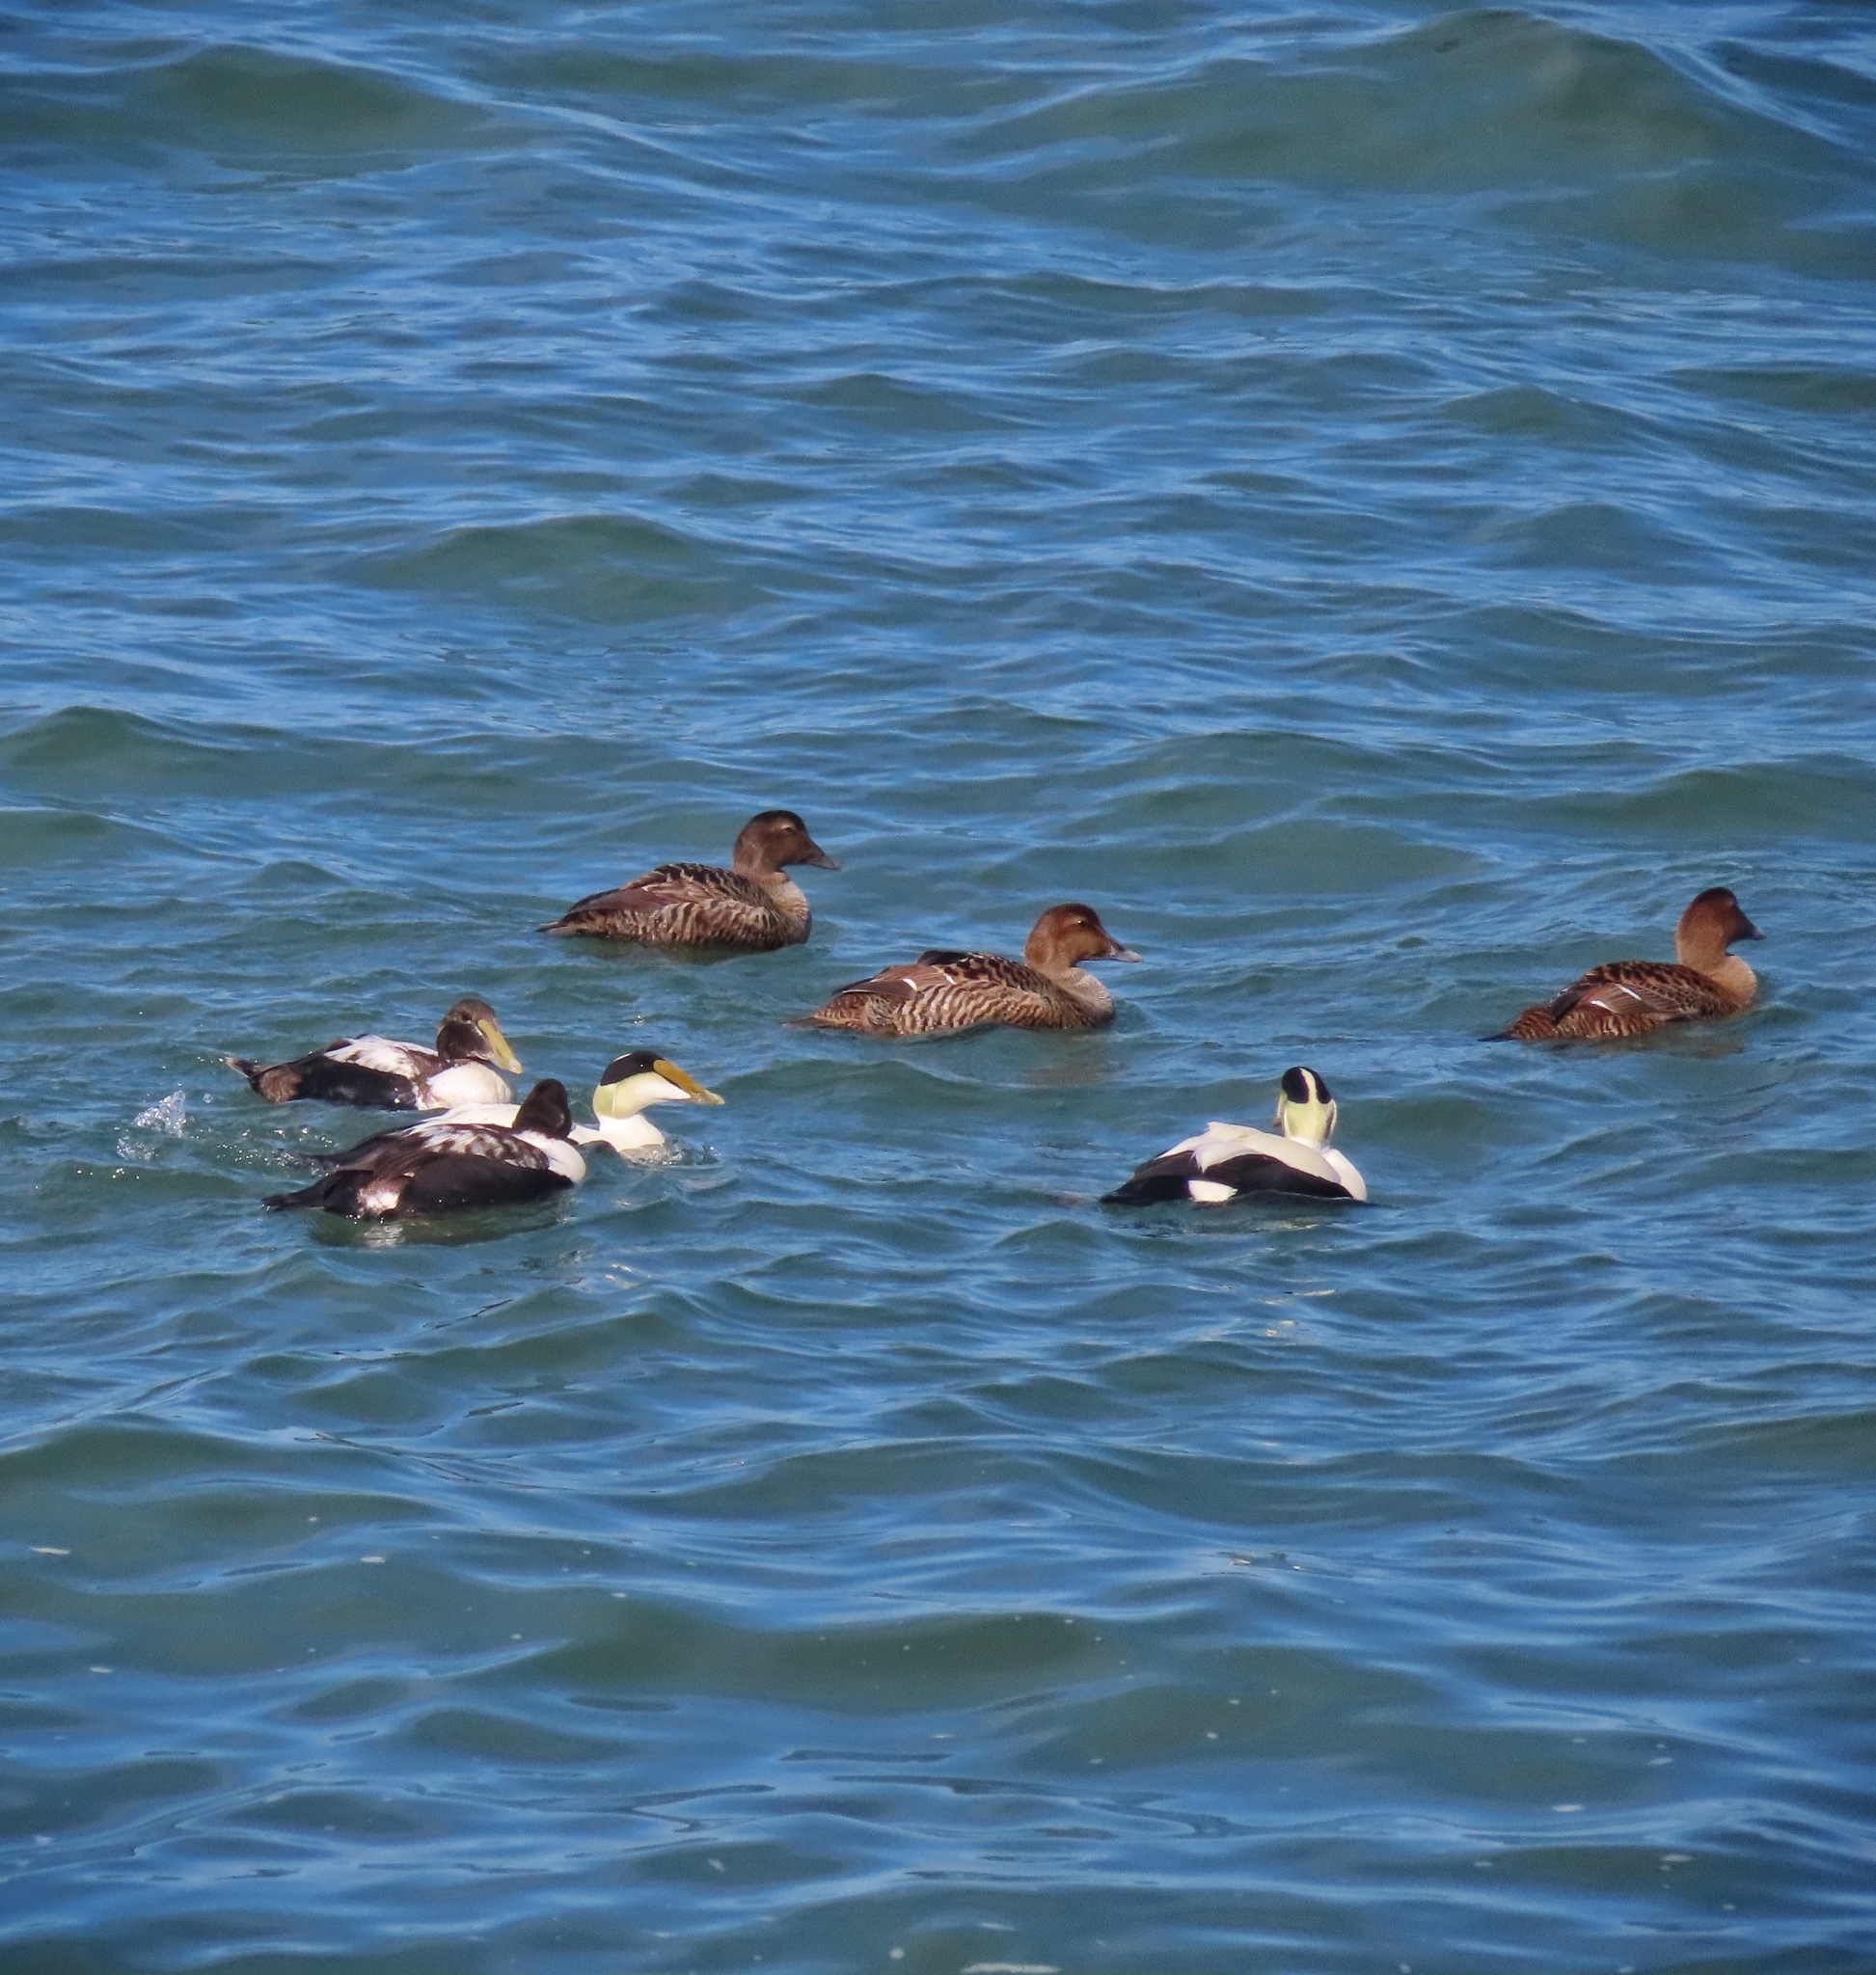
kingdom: Animalia
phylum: Chordata
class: Aves
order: Anseriformes
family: Anatidae
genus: Somateria
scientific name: Somateria mollissima
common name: Common eider
